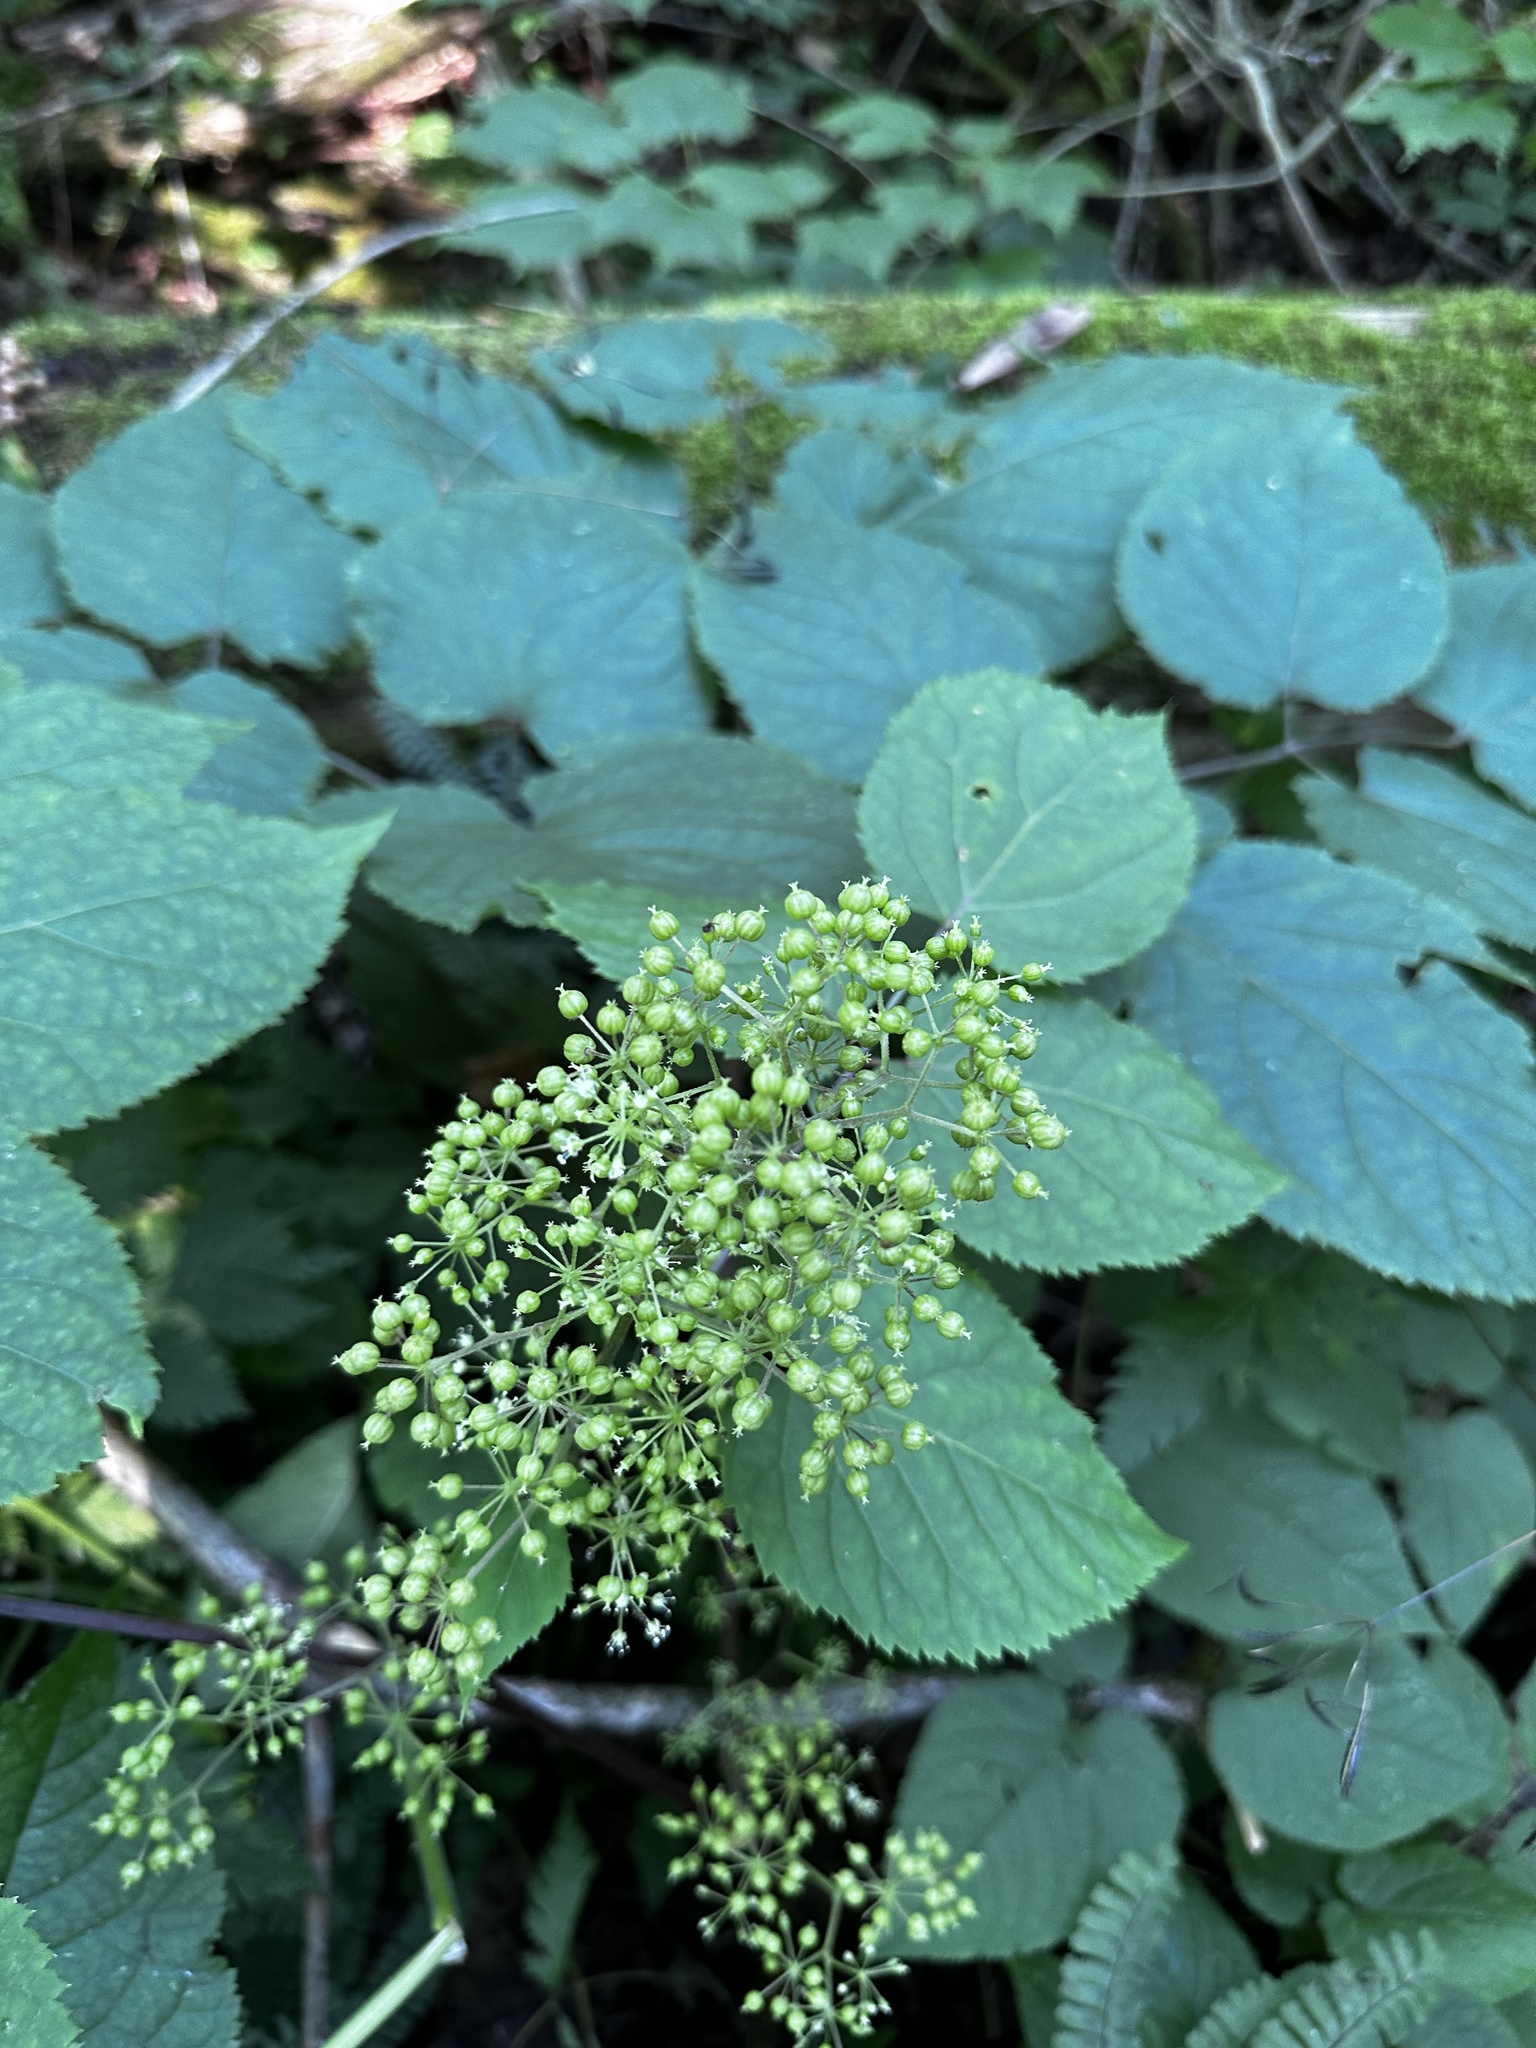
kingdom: Plantae
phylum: Tracheophyta
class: Magnoliopsida
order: Apiales
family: Araliaceae
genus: Aralia
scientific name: Aralia racemosa
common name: American-spikenard
